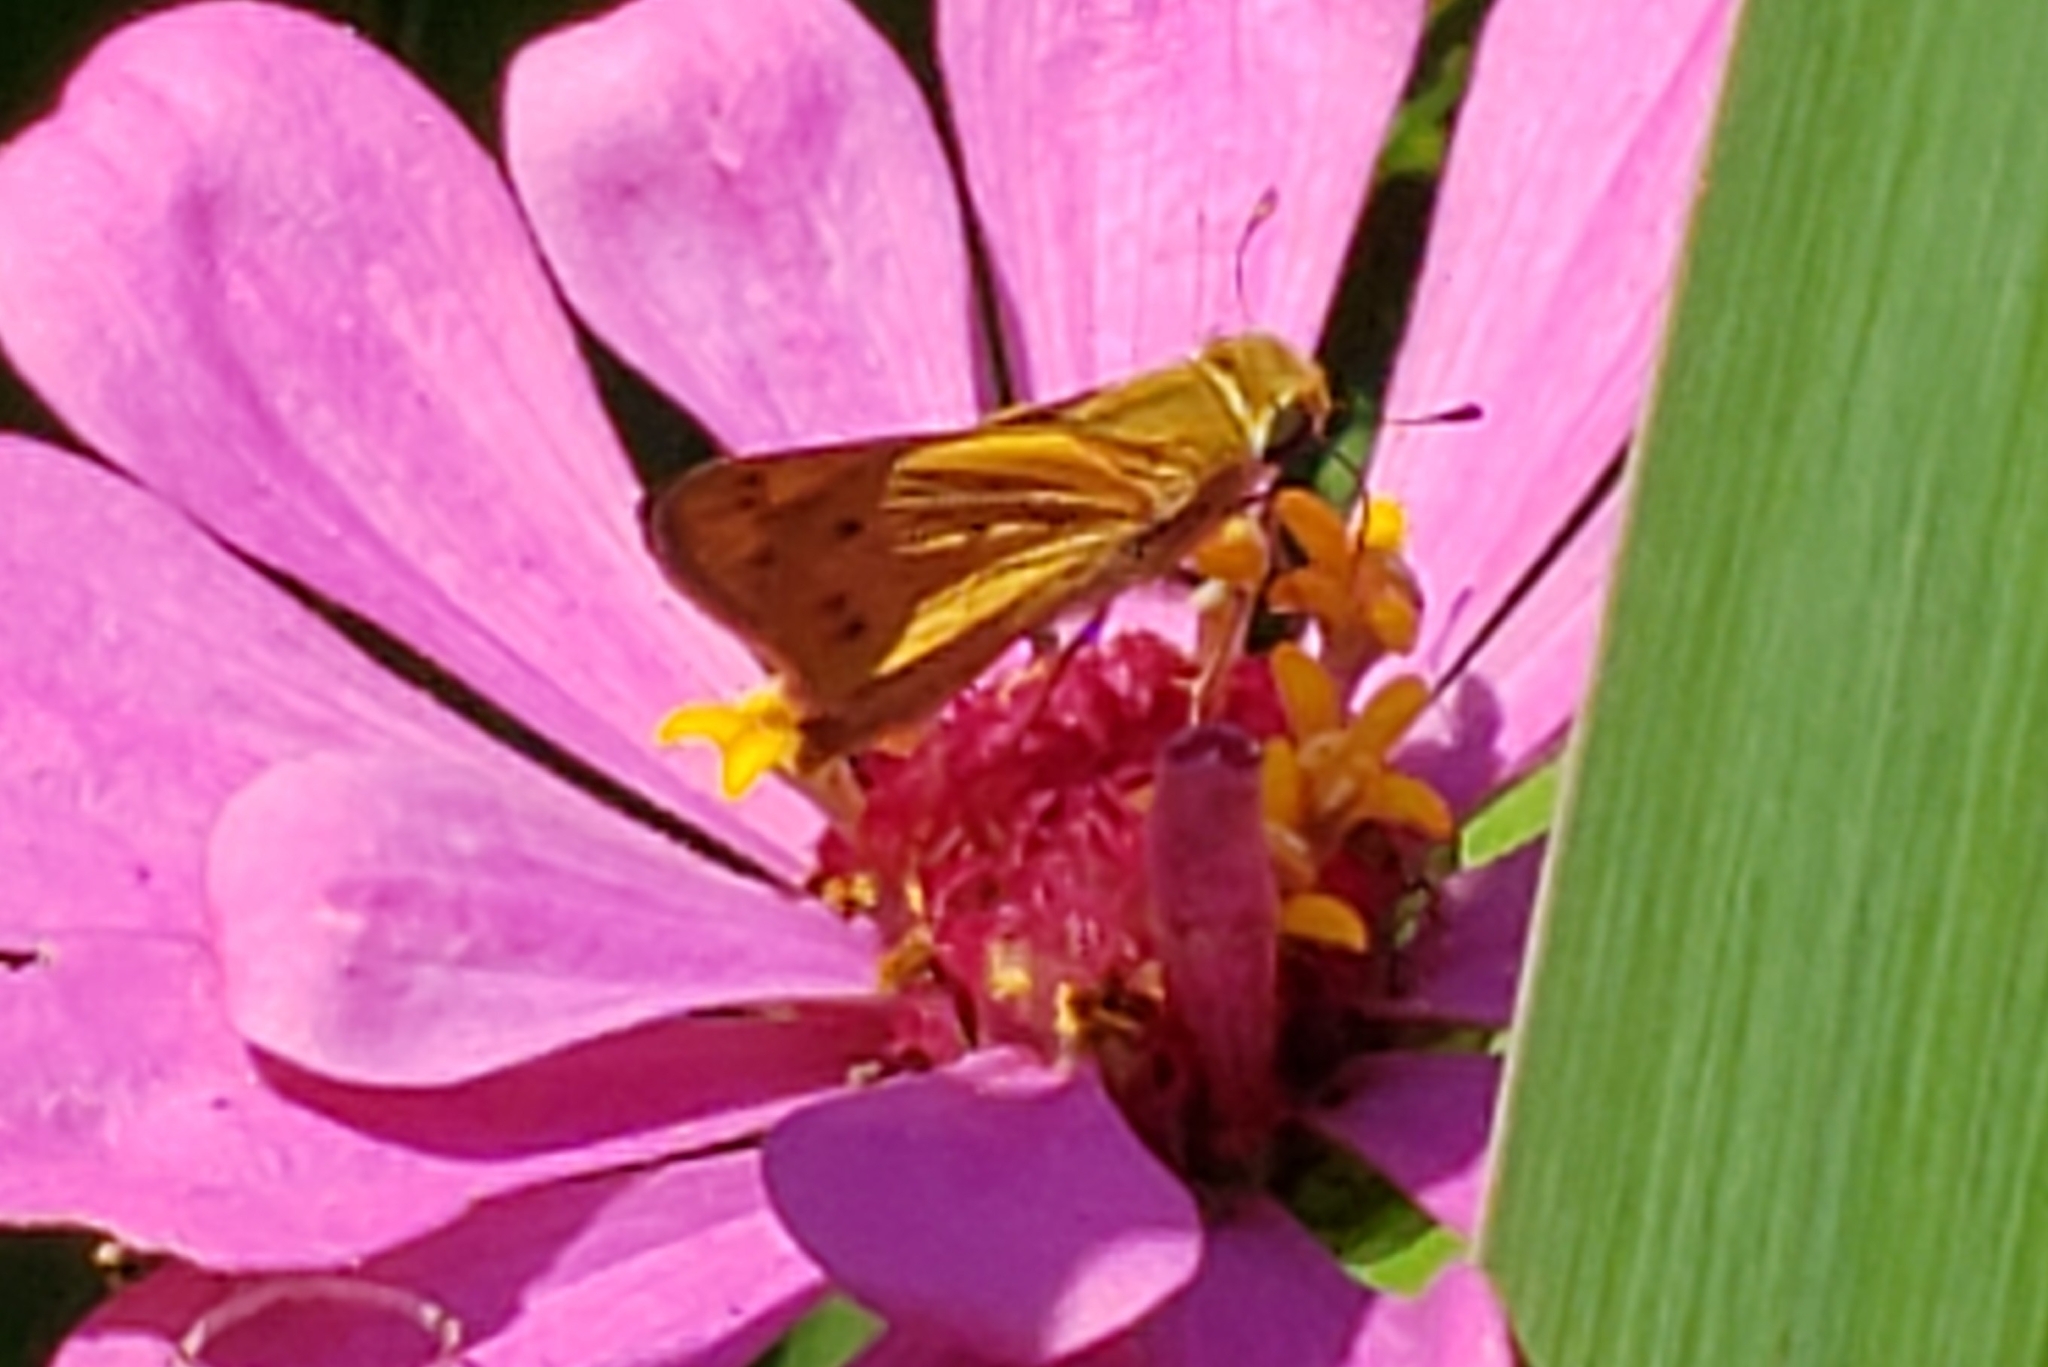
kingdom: Animalia
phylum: Arthropoda
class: Insecta
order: Lepidoptera
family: Hesperiidae
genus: Hylephila
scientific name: Hylephila phyleus
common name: Fiery skipper
